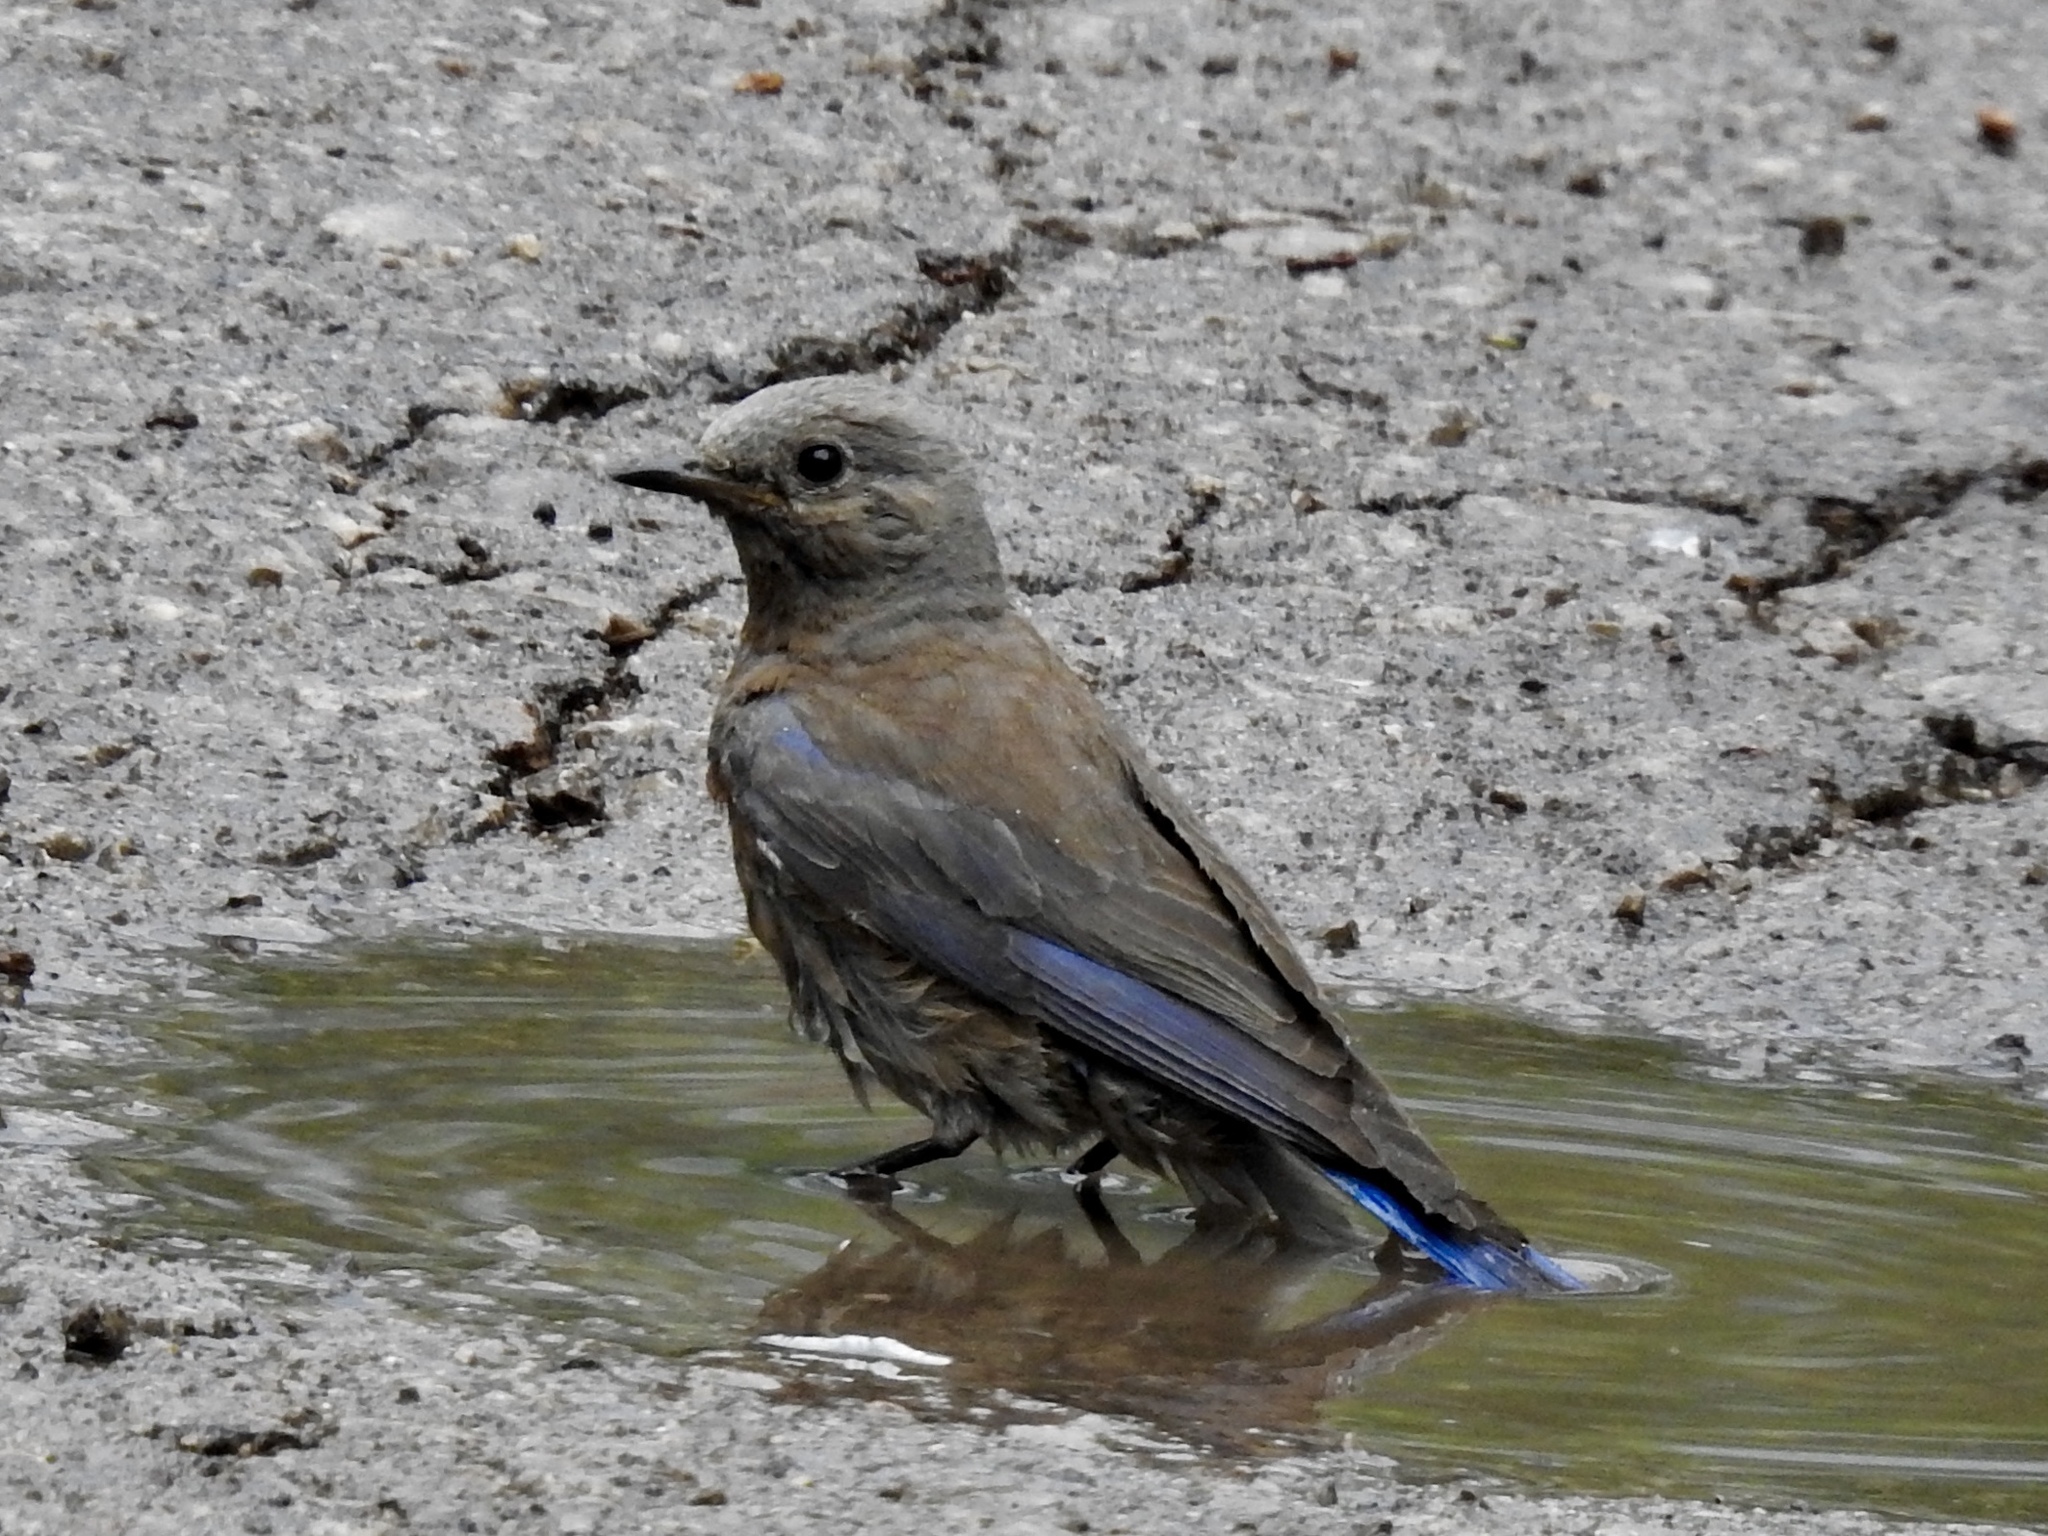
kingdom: Animalia
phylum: Chordata
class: Aves
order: Passeriformes
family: Turdidae
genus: Sialia
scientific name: Sialia mexicana
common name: Western bluebird
